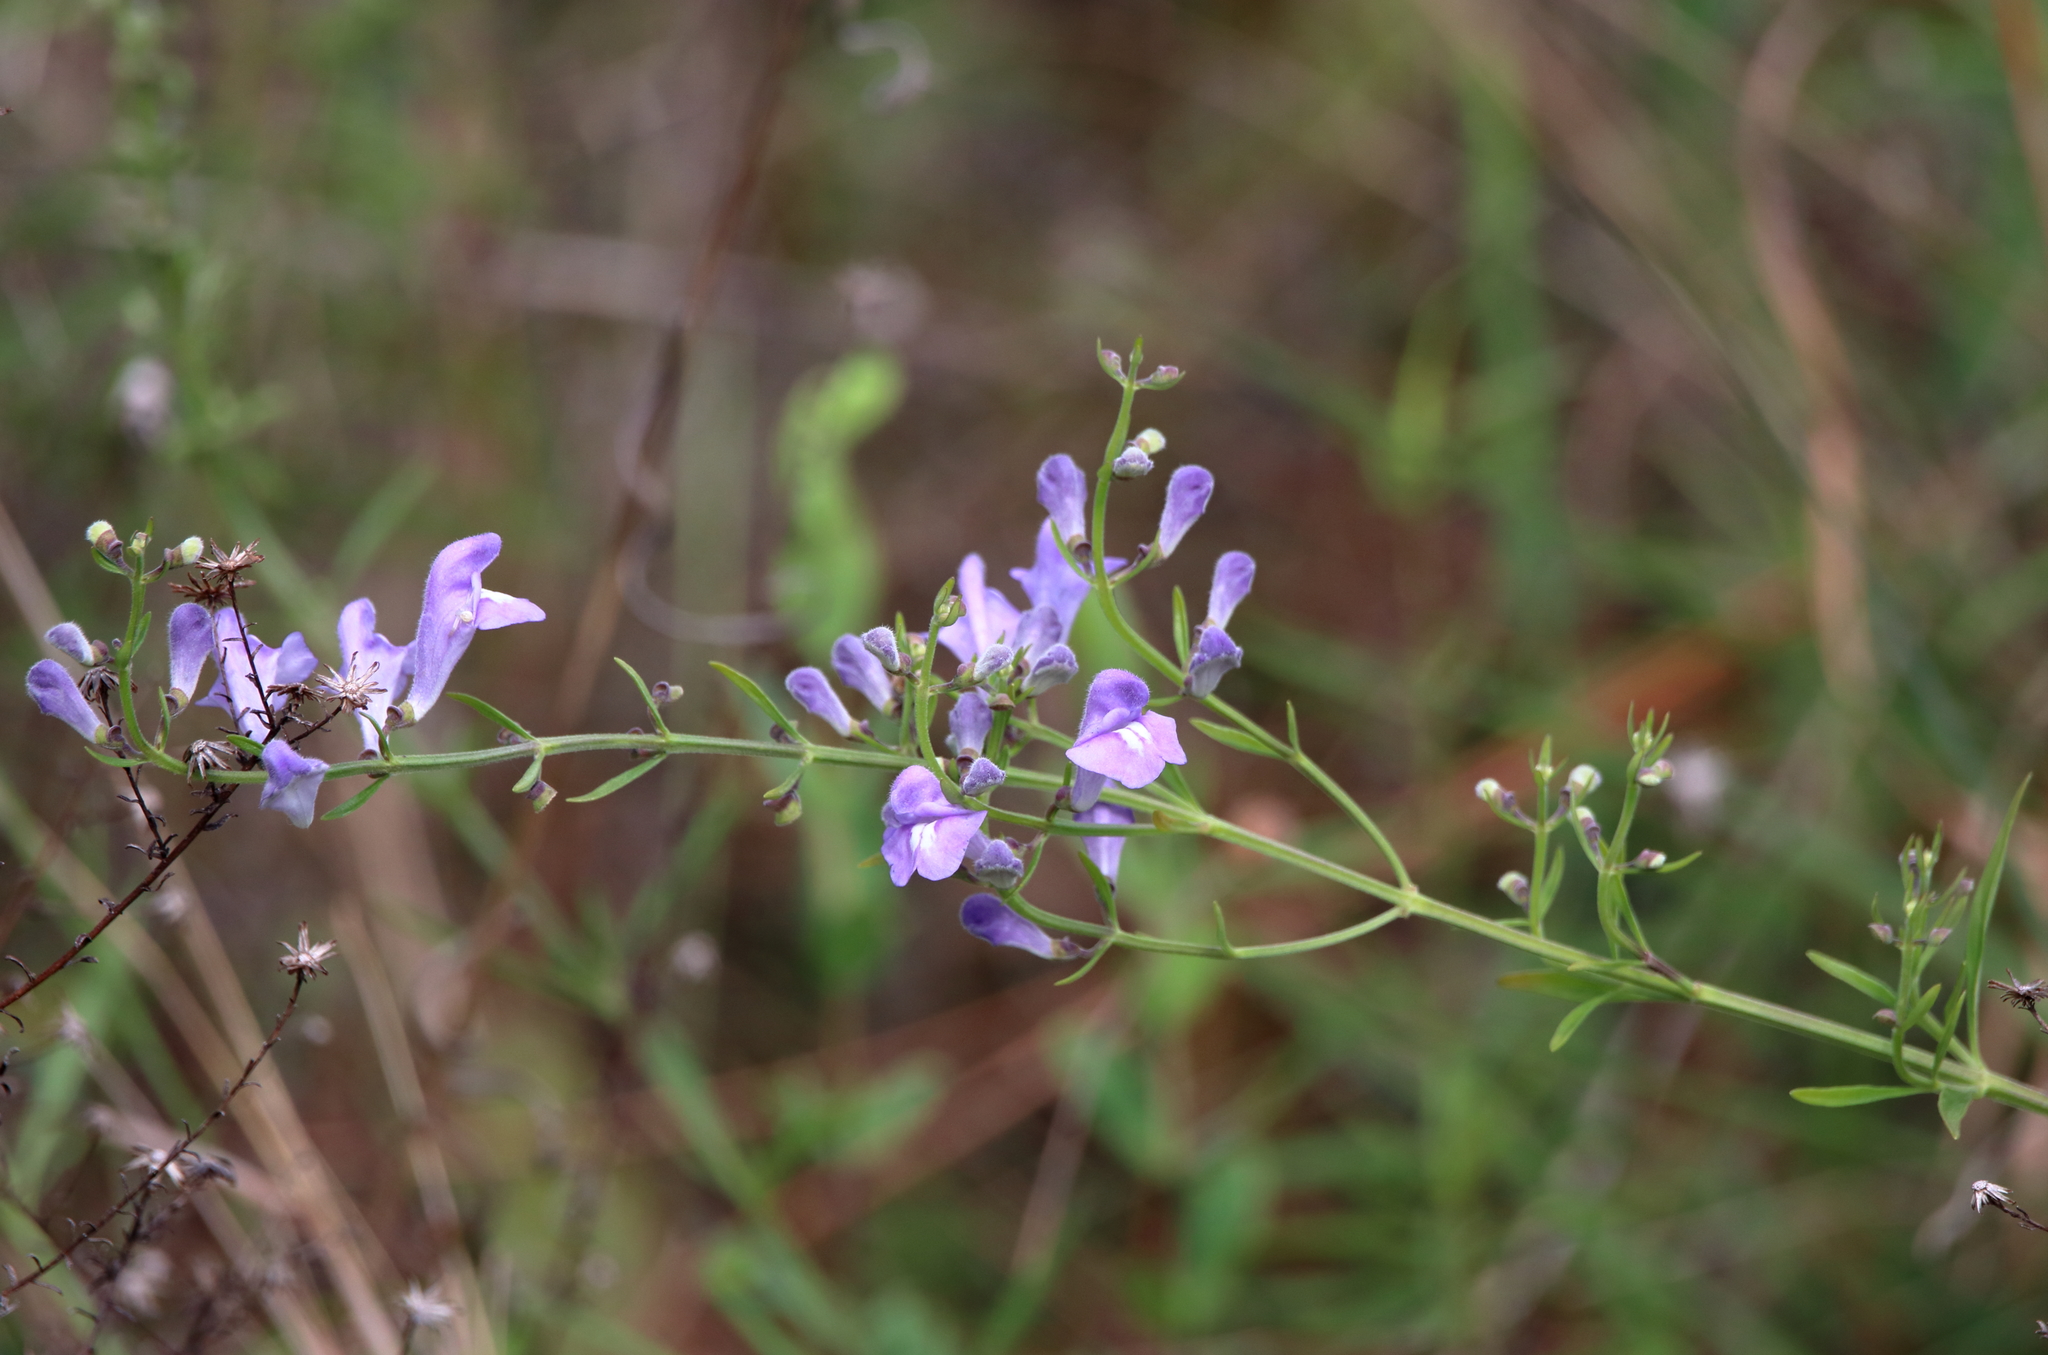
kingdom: Plantae
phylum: Tracheophyta
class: Magnoliopsida
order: Lamiales
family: Lamiaceae
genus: Scutellaria
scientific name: Scutellaria integrifolia
